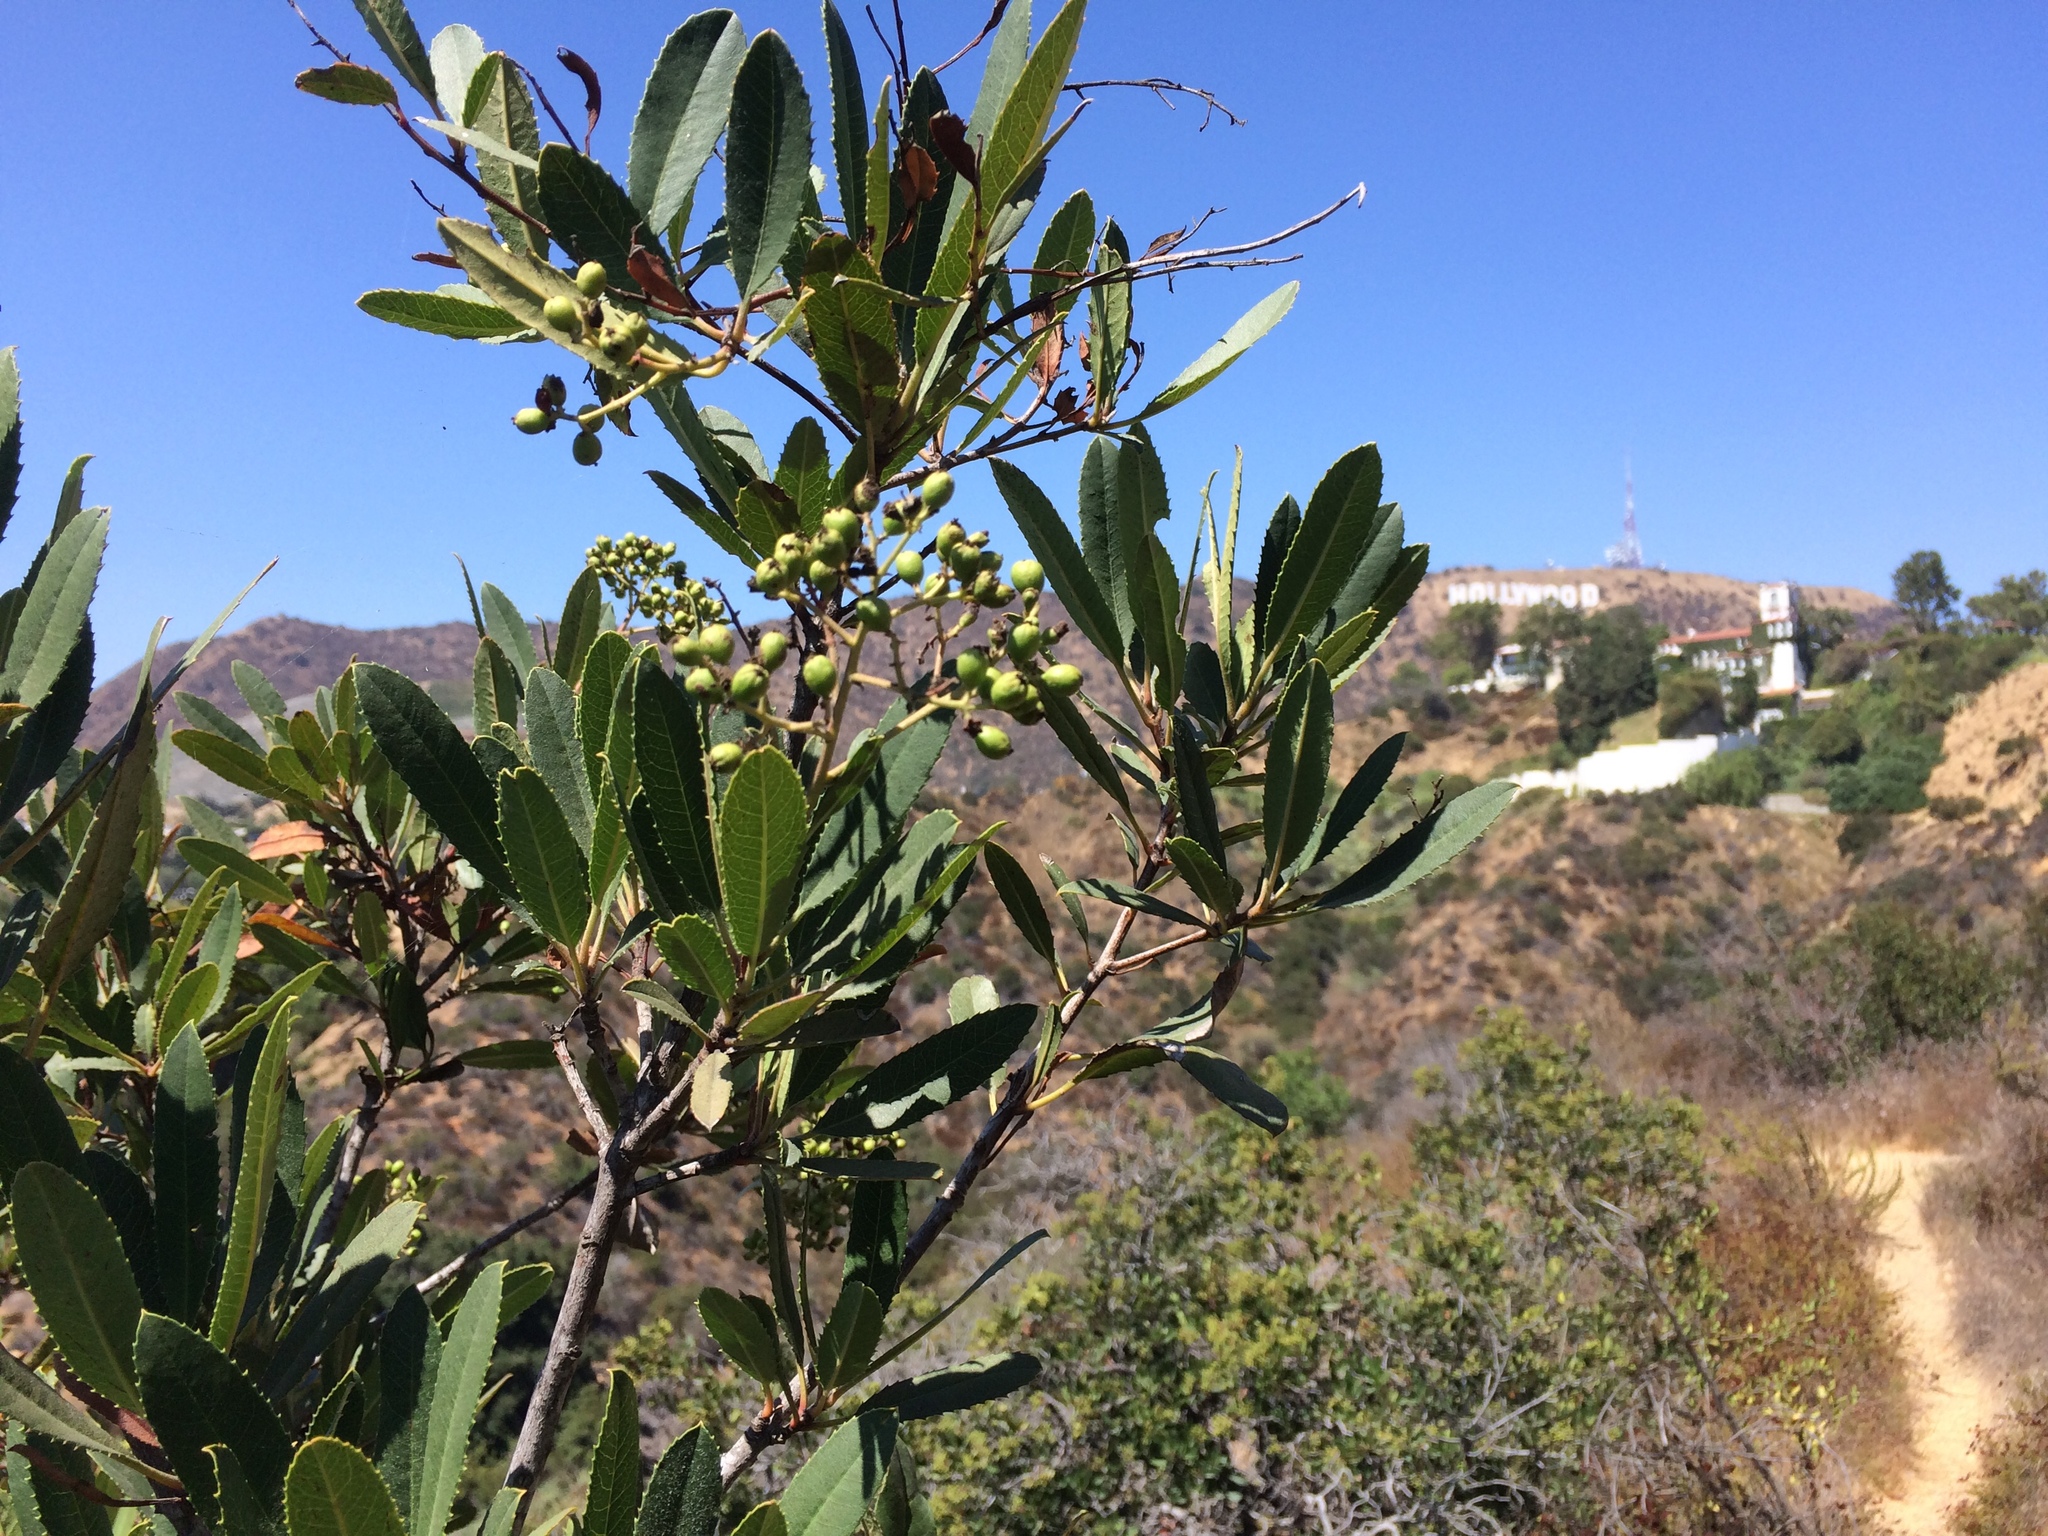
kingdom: Plantae
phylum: Tracheophyta
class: Magnoliopsida
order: Rosales
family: Rosaceae
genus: Heteromeles
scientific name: Heteromeles arbutifolia
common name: California-holly
